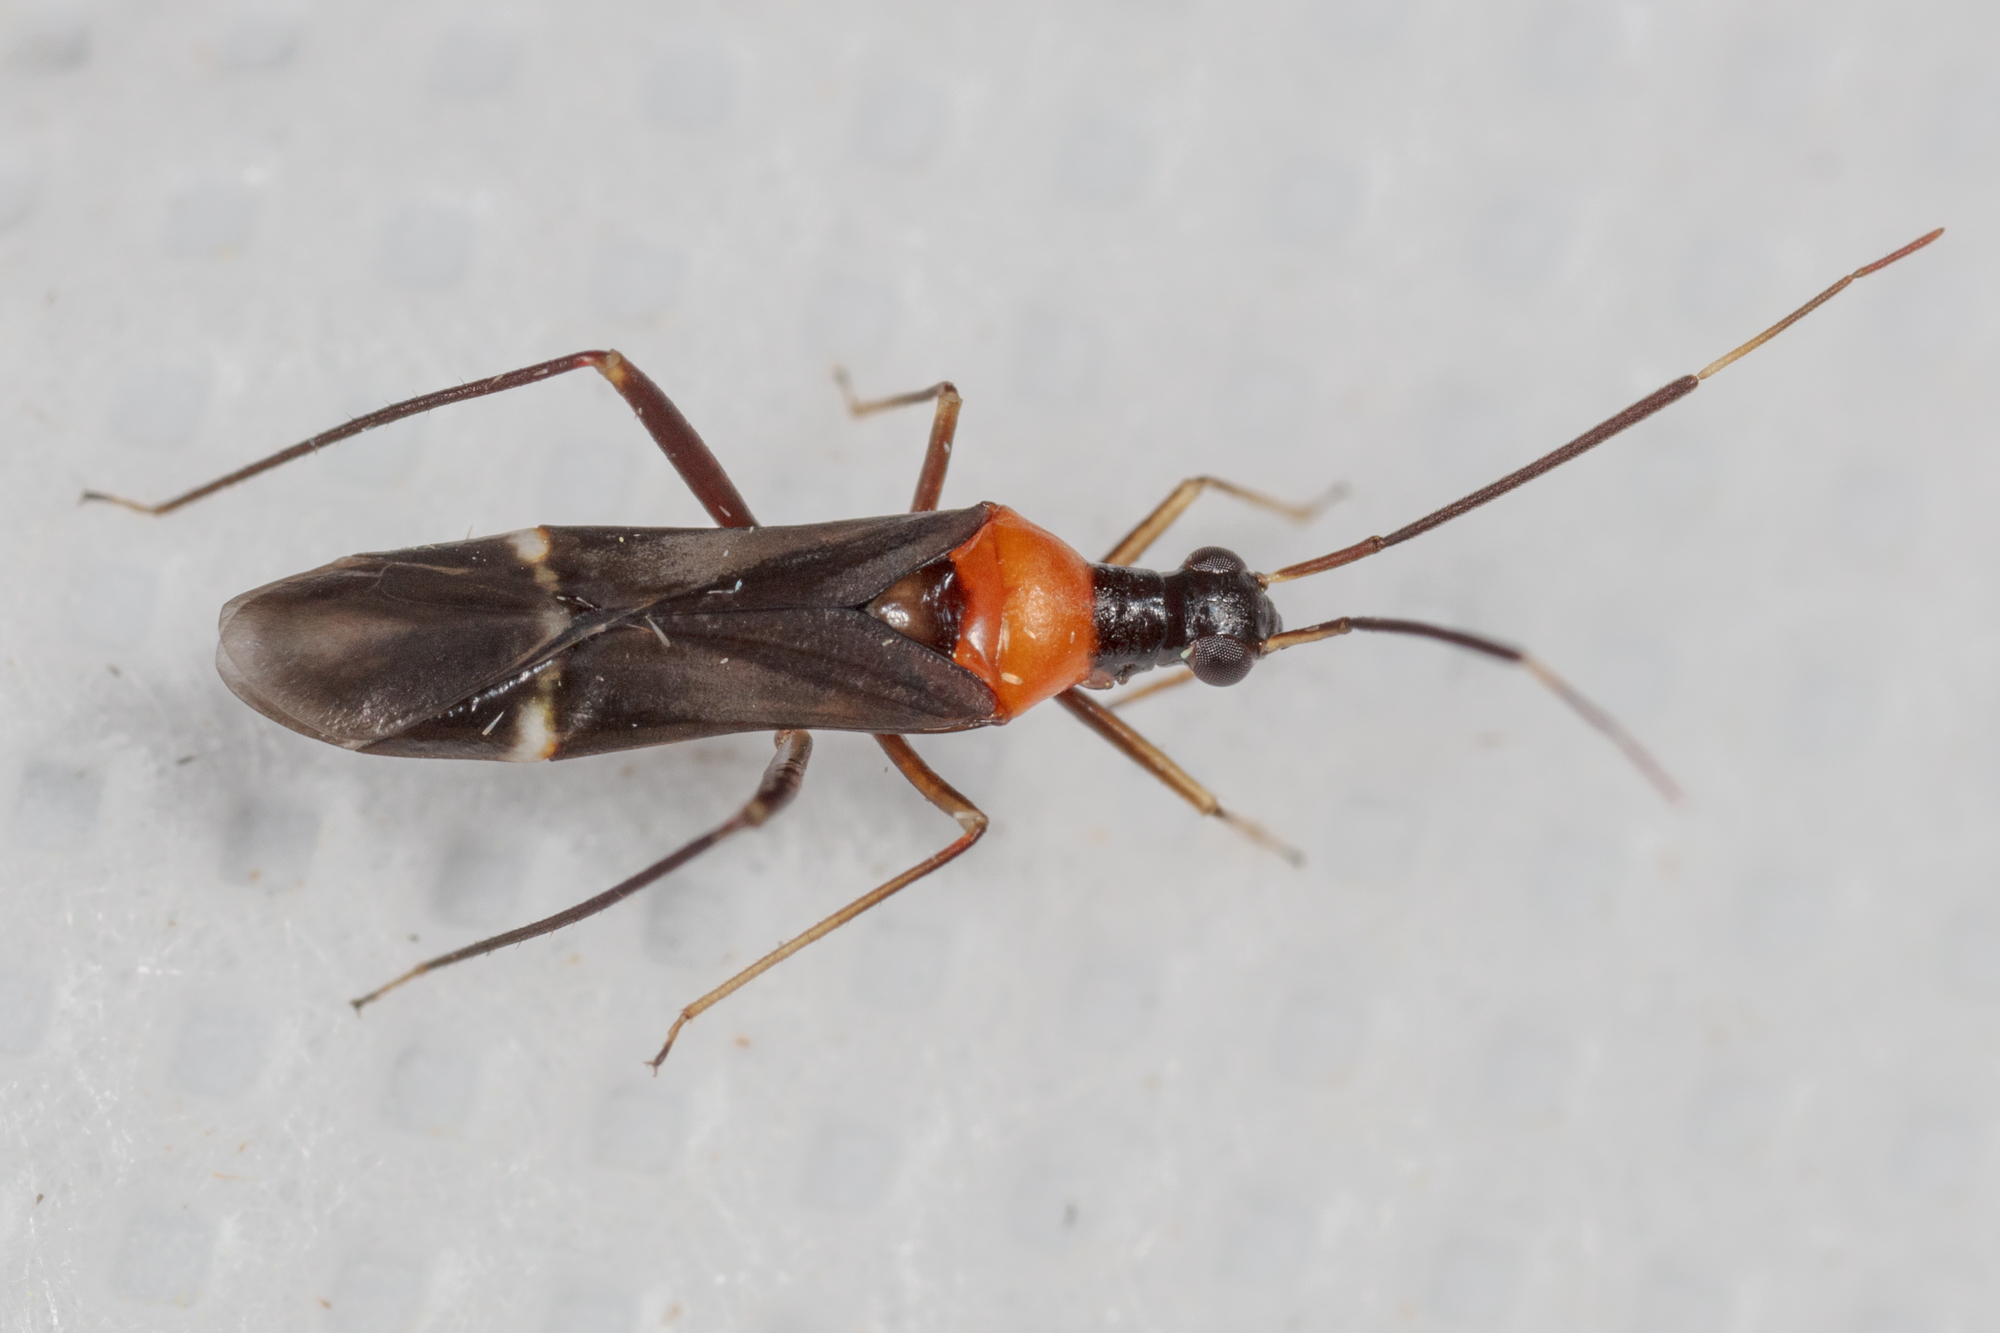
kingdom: Animalia
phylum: Arthropoda
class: Insecta
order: Hemiptera
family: Miridae
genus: Pseudoxenetus
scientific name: Pseudoxenetus regalis
